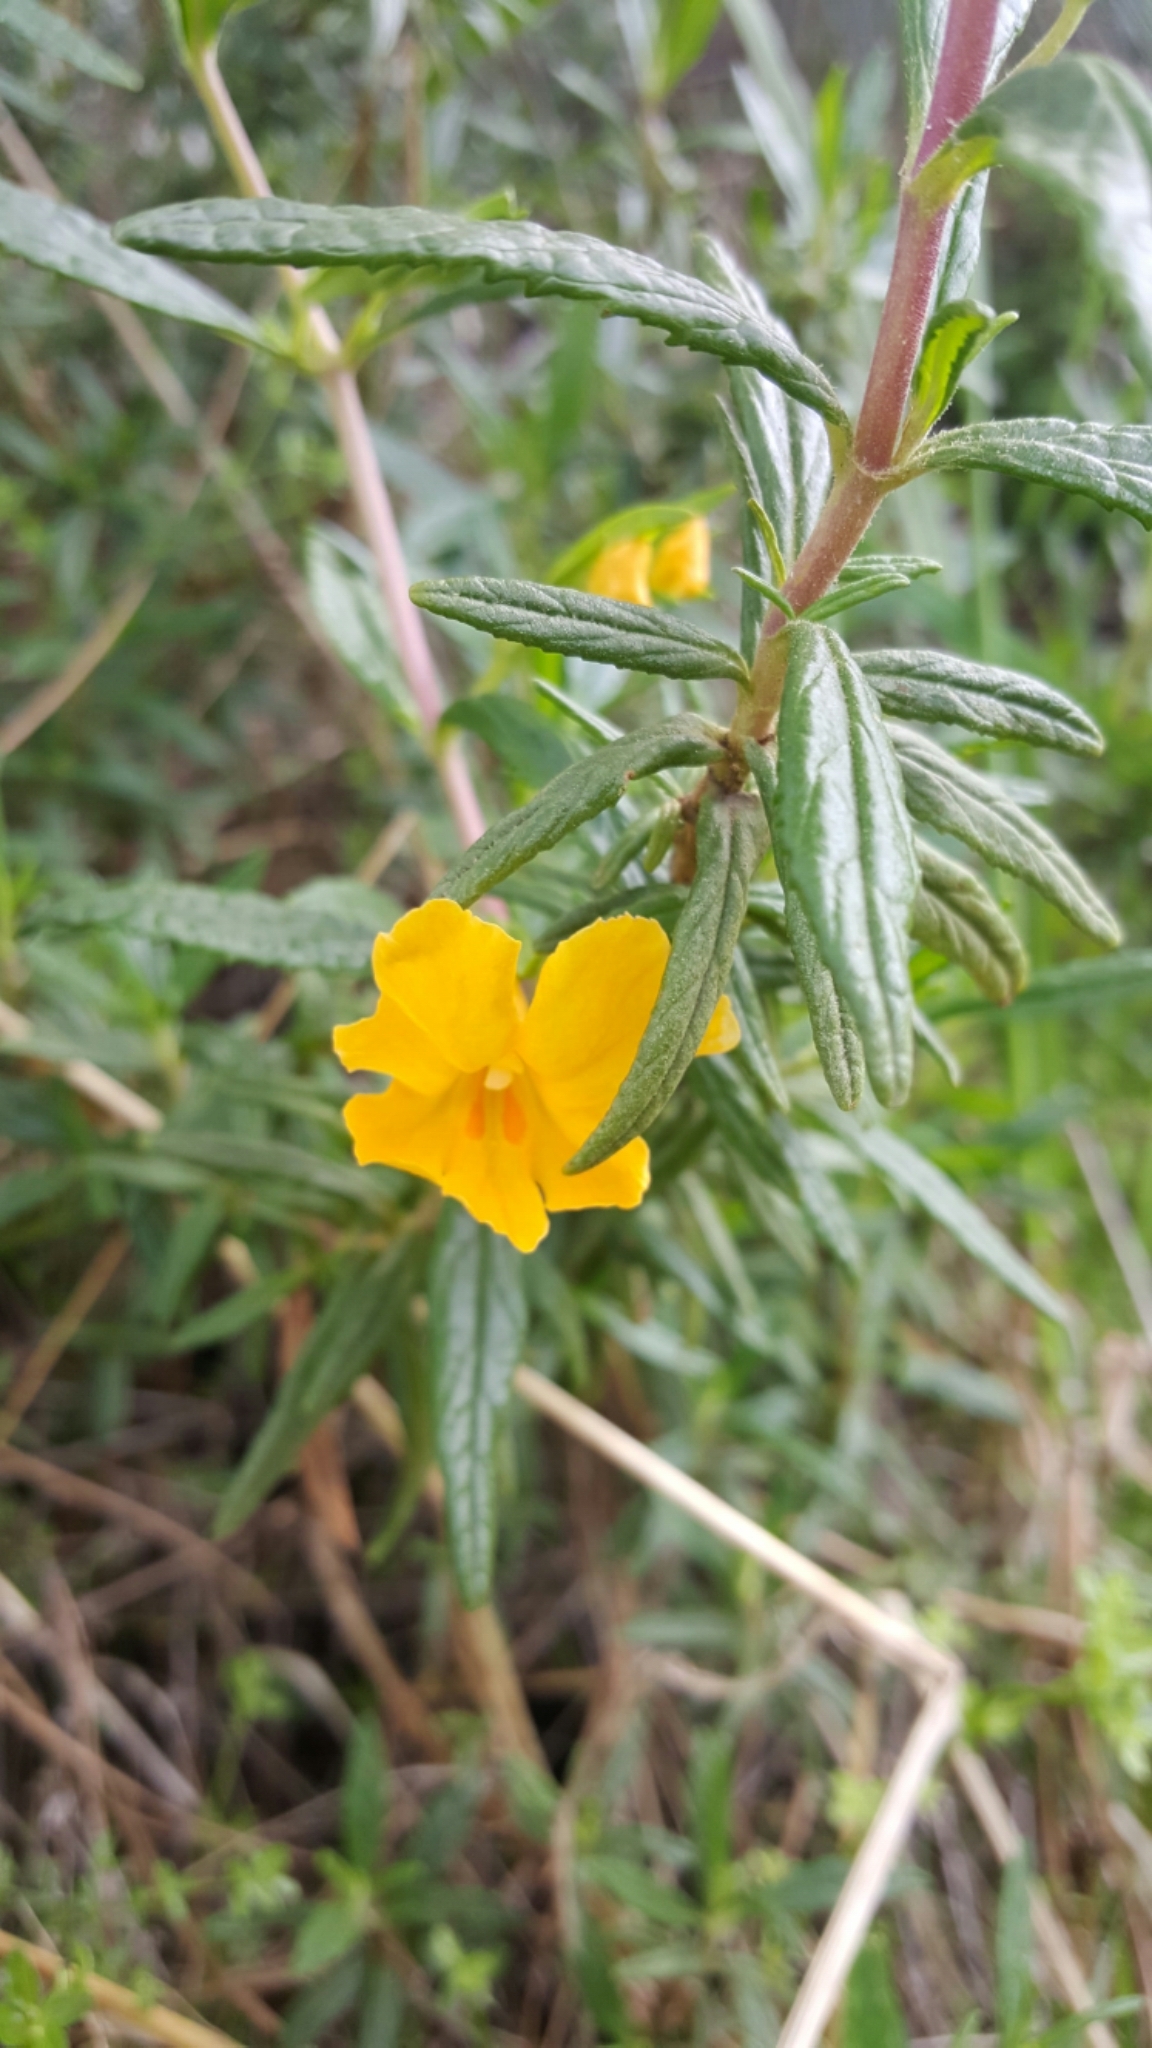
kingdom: Plantae
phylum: Tracheophyta
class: Magnoliopsida
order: Lamiales
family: Phrymaceae
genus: Diplacus
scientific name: Diplacus aurantiacus
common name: Bush monkey-flower
